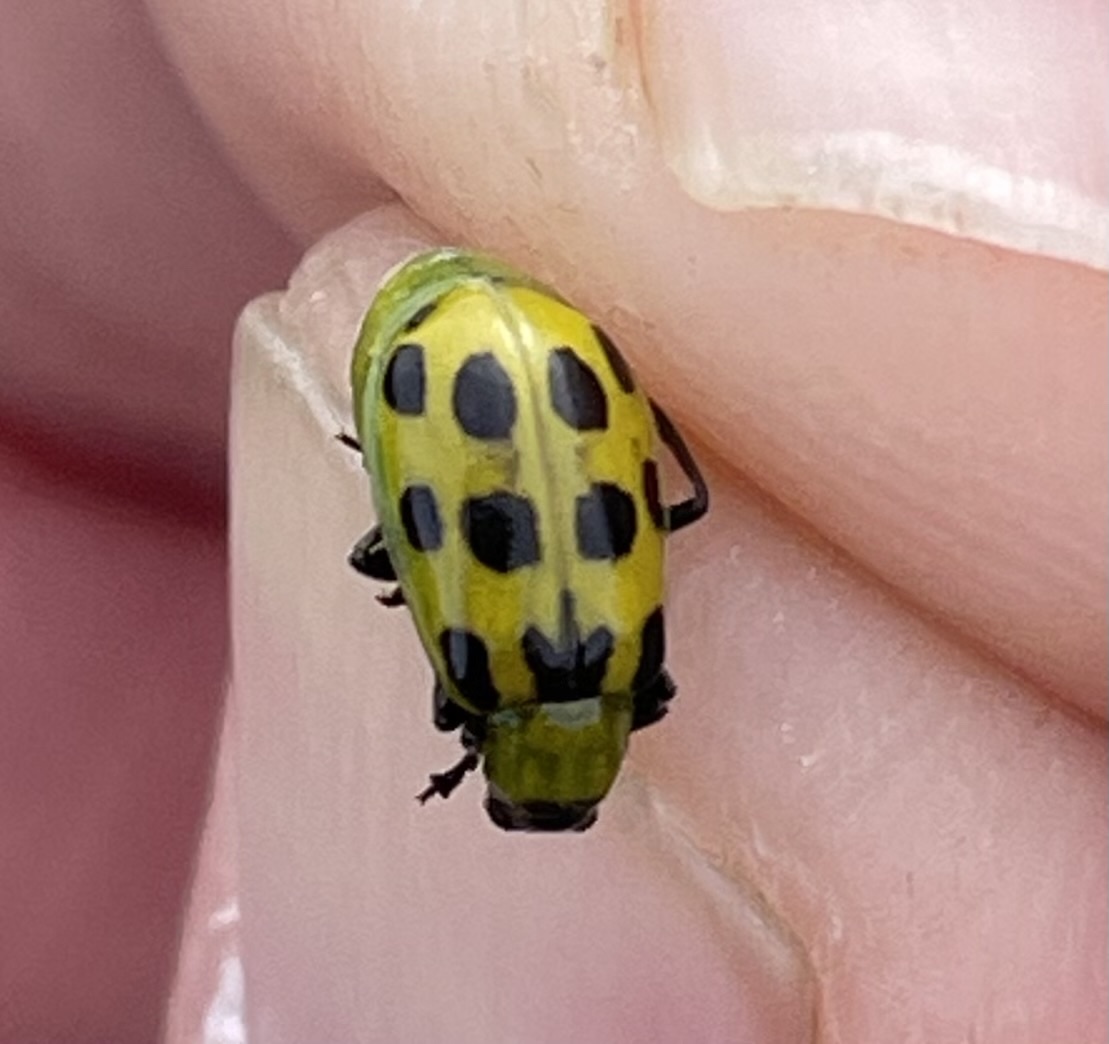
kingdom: Animalia
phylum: Arthropoda
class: Insecta
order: Coleoptera
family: Chrysomelidae
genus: Diabrotica
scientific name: Diabrotica undecimpunctata
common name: Spotted cucumber beetle
